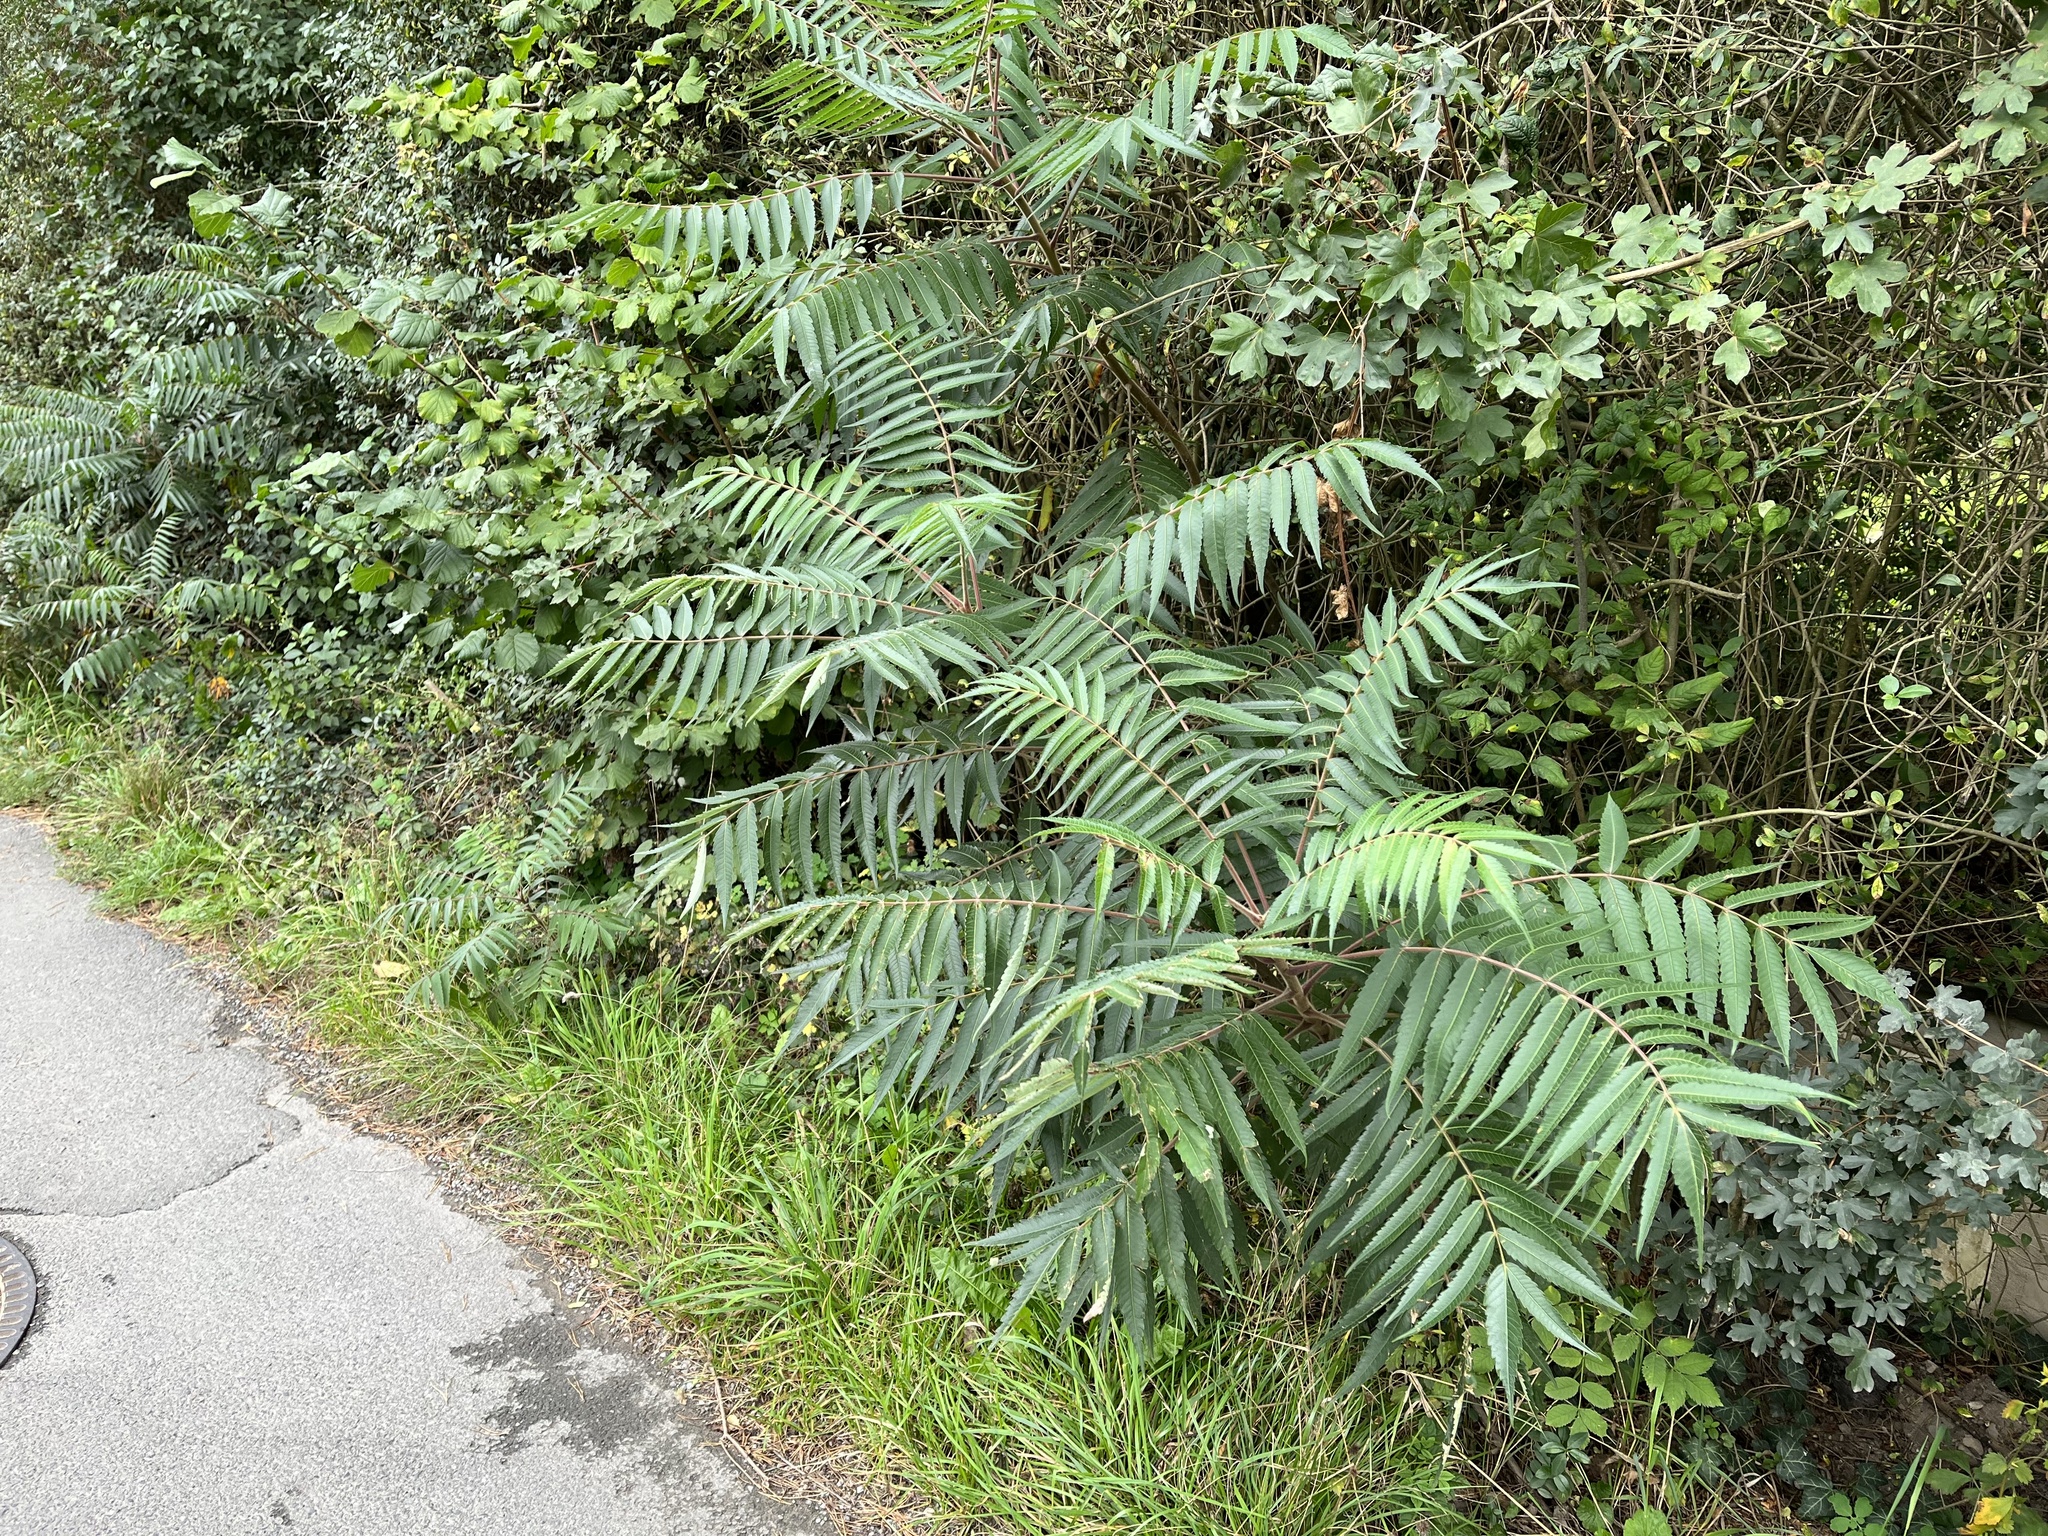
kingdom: Plantae
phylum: Tracheophyta
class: Magnoliopsida
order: Sapindales
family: Anacardiaceae
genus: Rhus
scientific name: Rhus typhina
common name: Staghorn sumac
